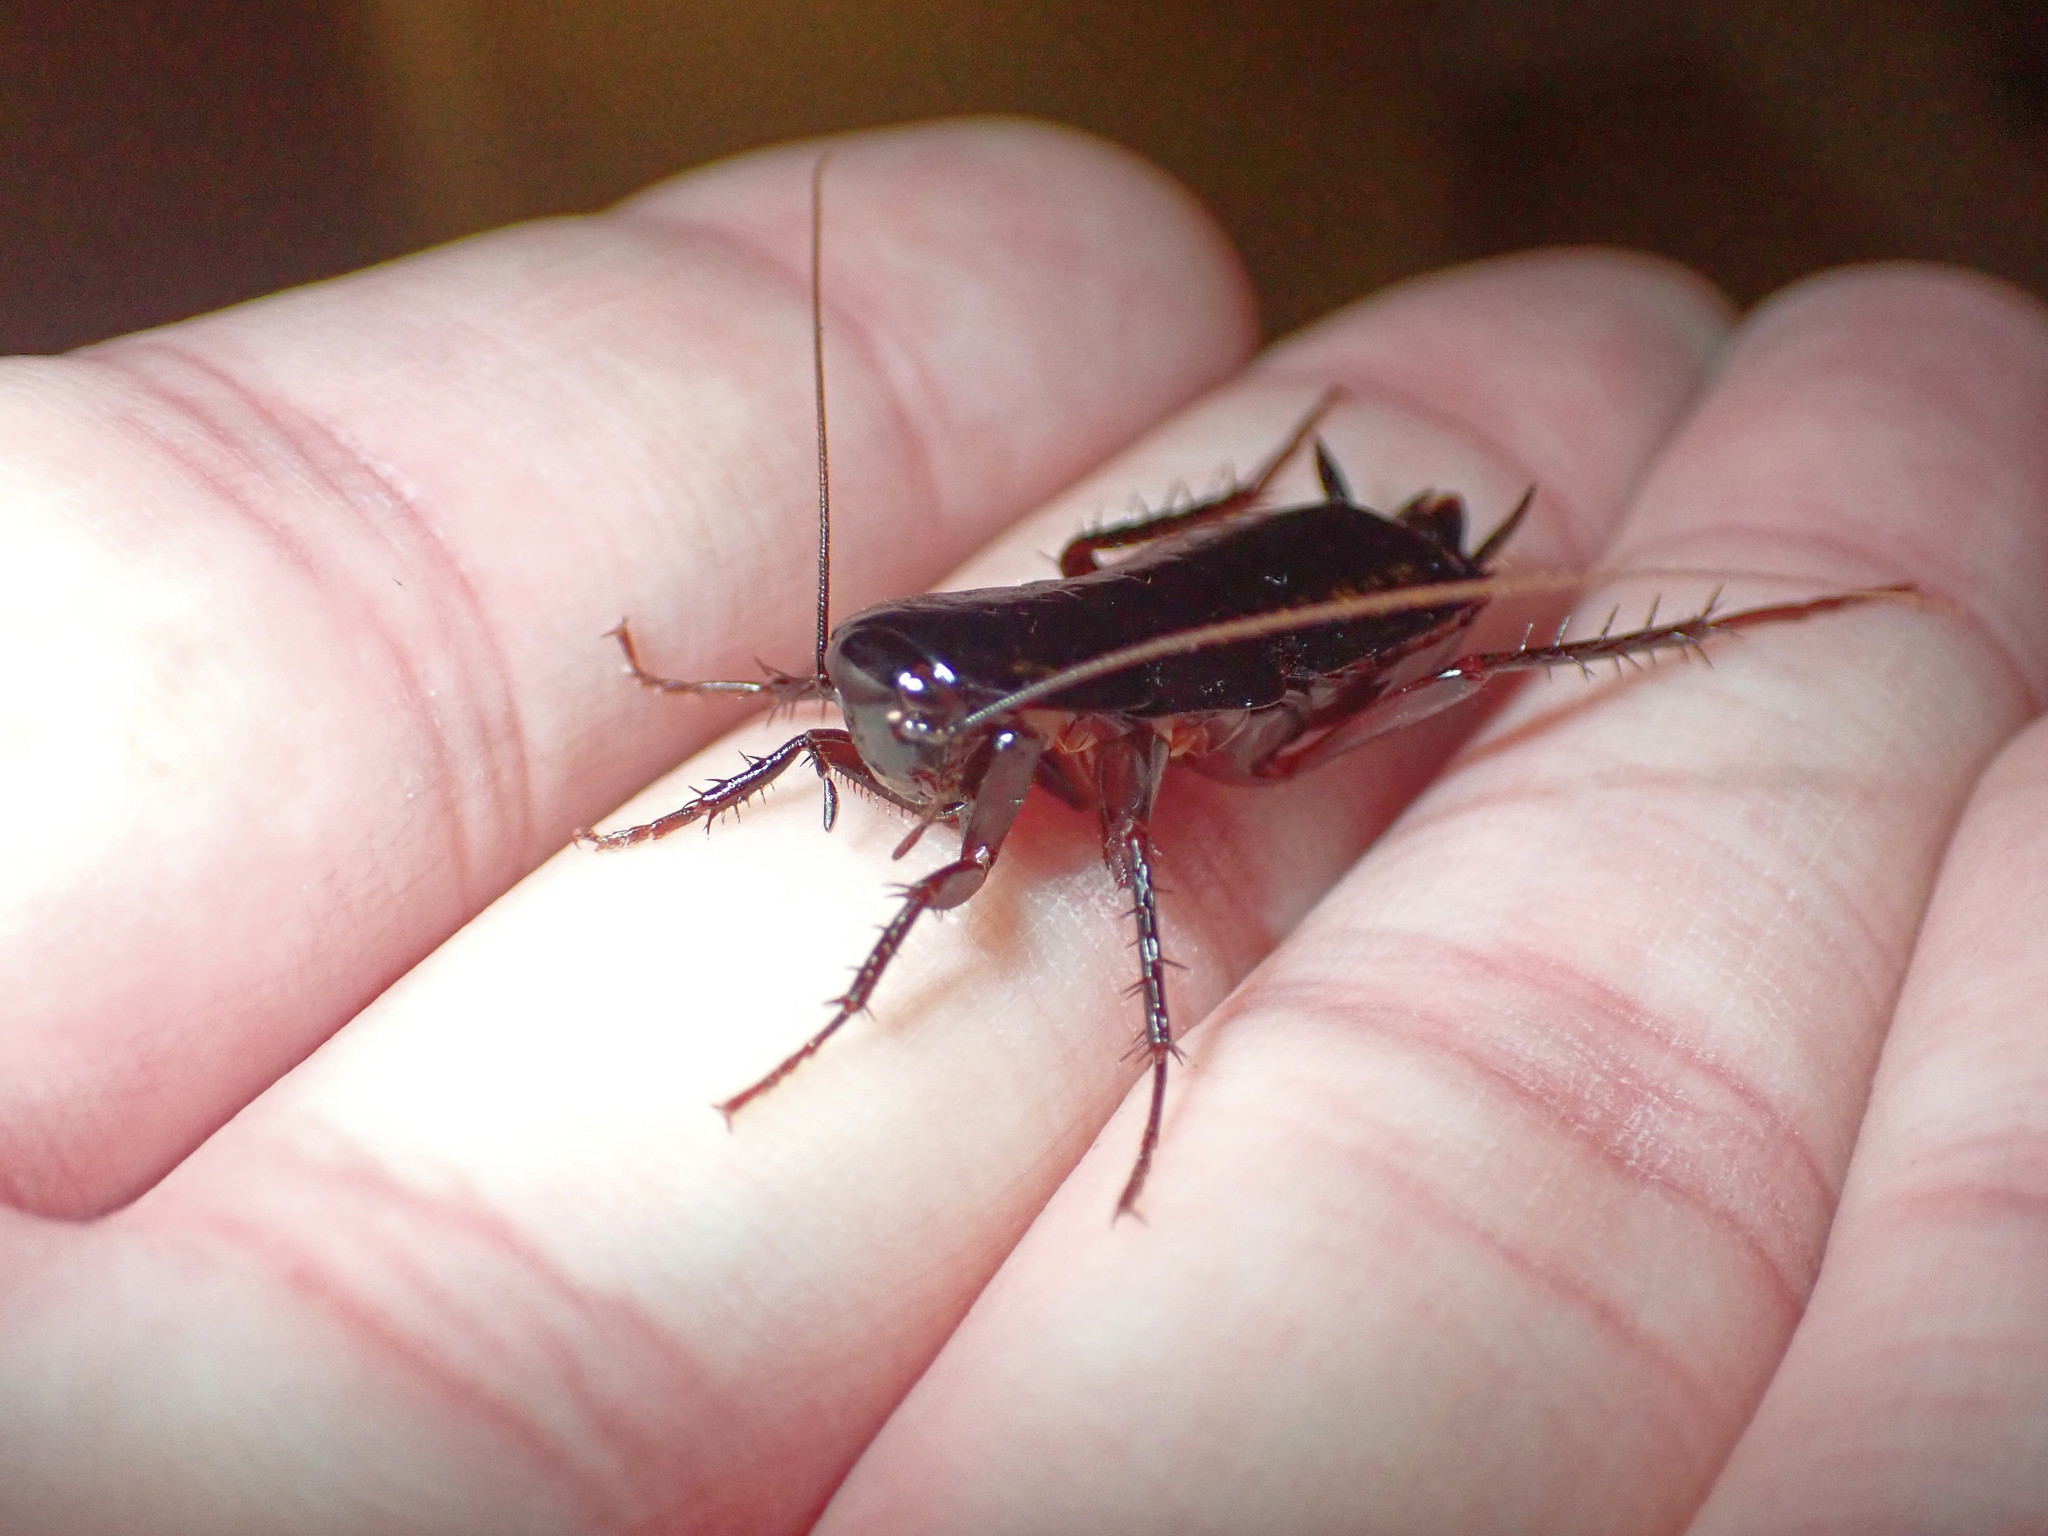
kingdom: Animalia
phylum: Arthropoda
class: Insecta
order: Blattodea
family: Blattidae
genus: Blatta
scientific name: Blatta orientalis
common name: Oriental cockroach
